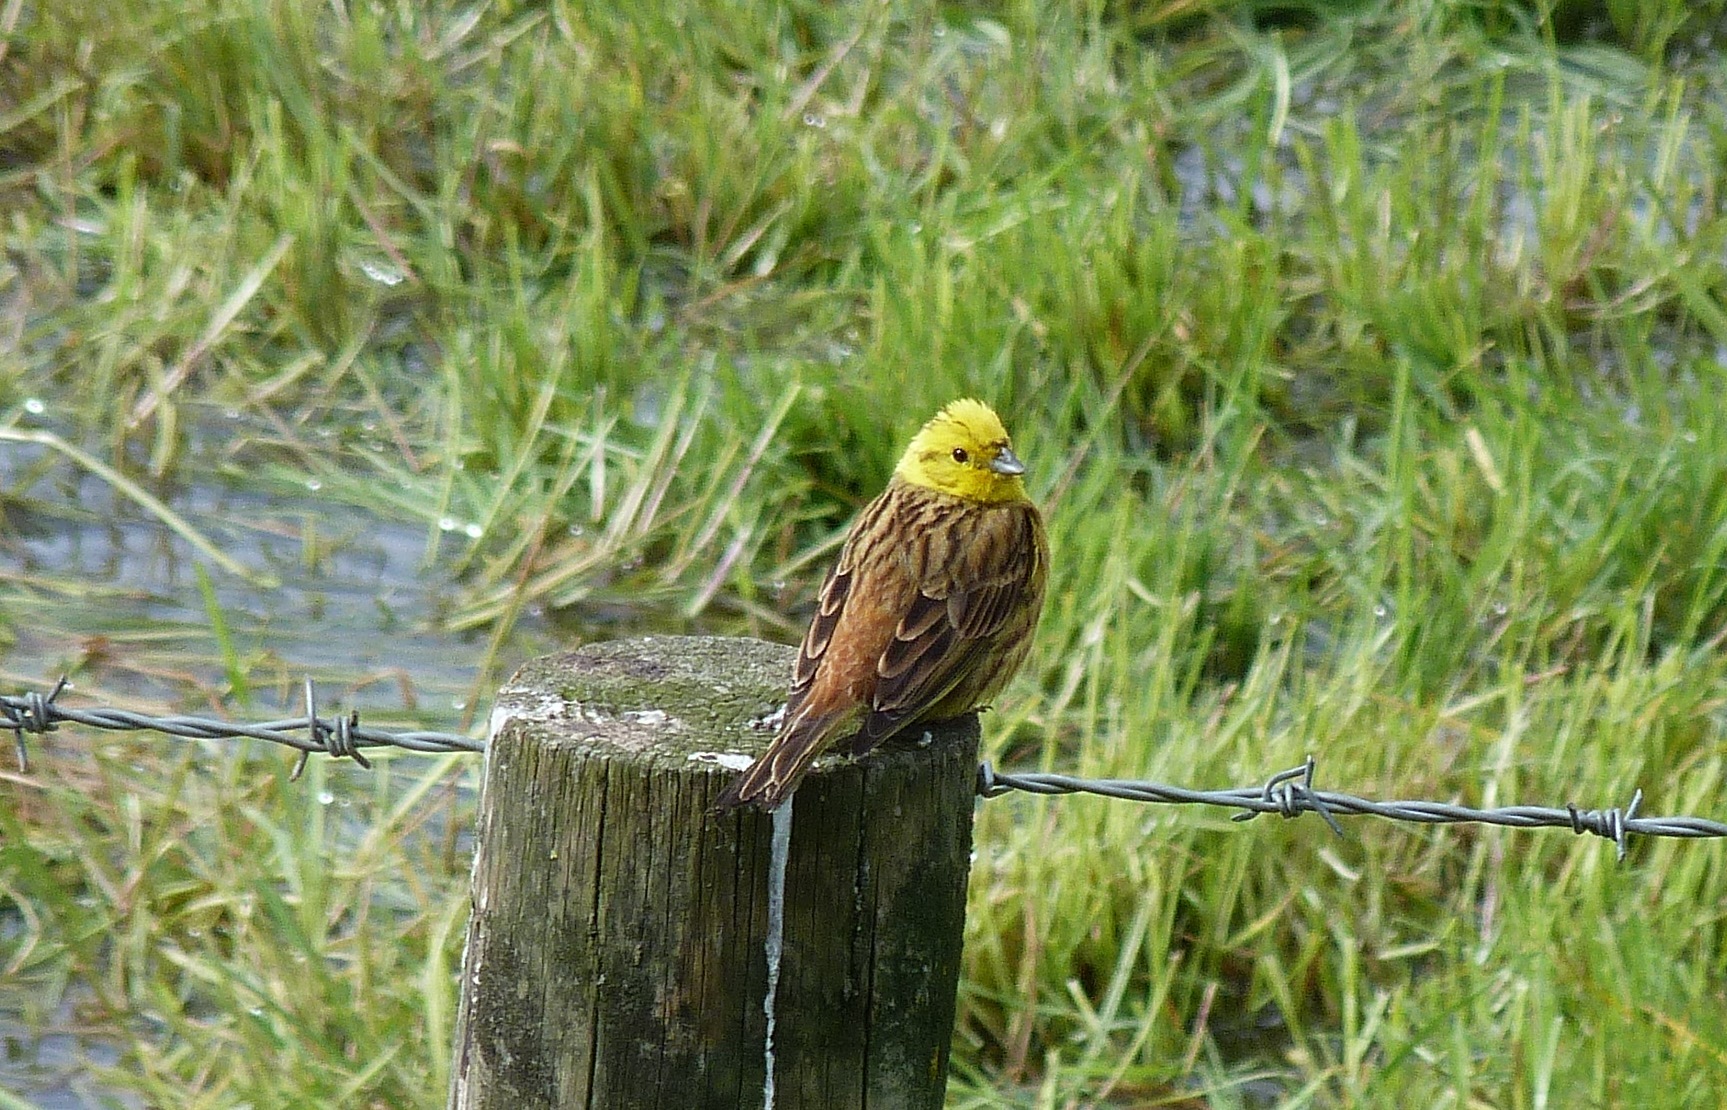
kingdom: Animalia
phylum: Chordata
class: Aves
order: Passeriformes
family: Emberizidae
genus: Emberiza
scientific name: Emberiza citrinella
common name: Yellowhammer
